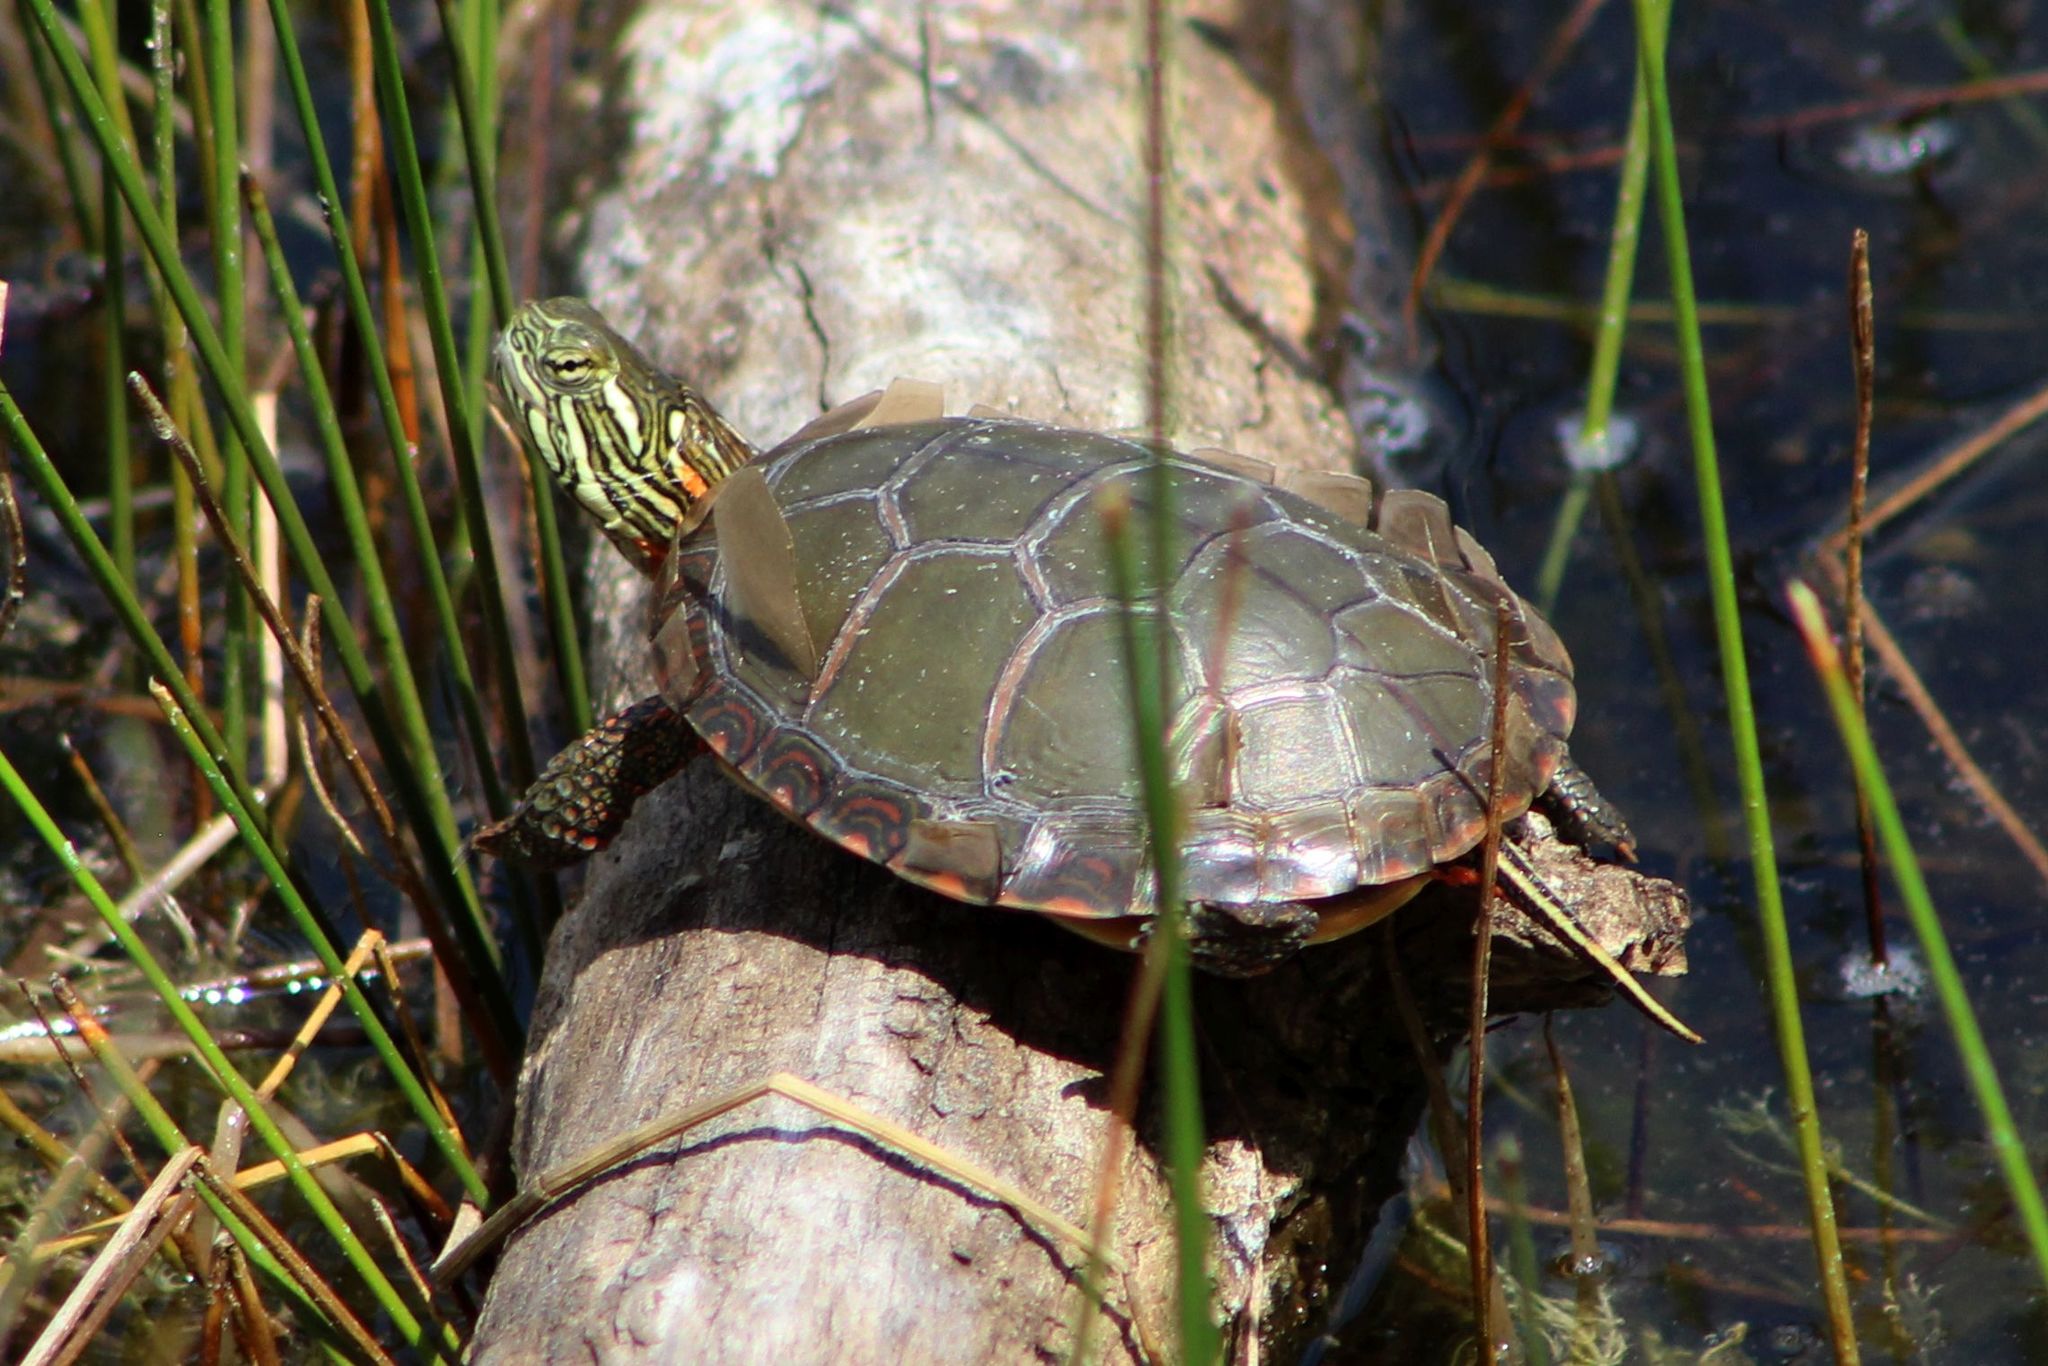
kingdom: Animalia
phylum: Chordata
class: Testudines
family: Emydidae
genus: Chrysemys
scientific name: Chrysemys picta
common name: Painted turtle
